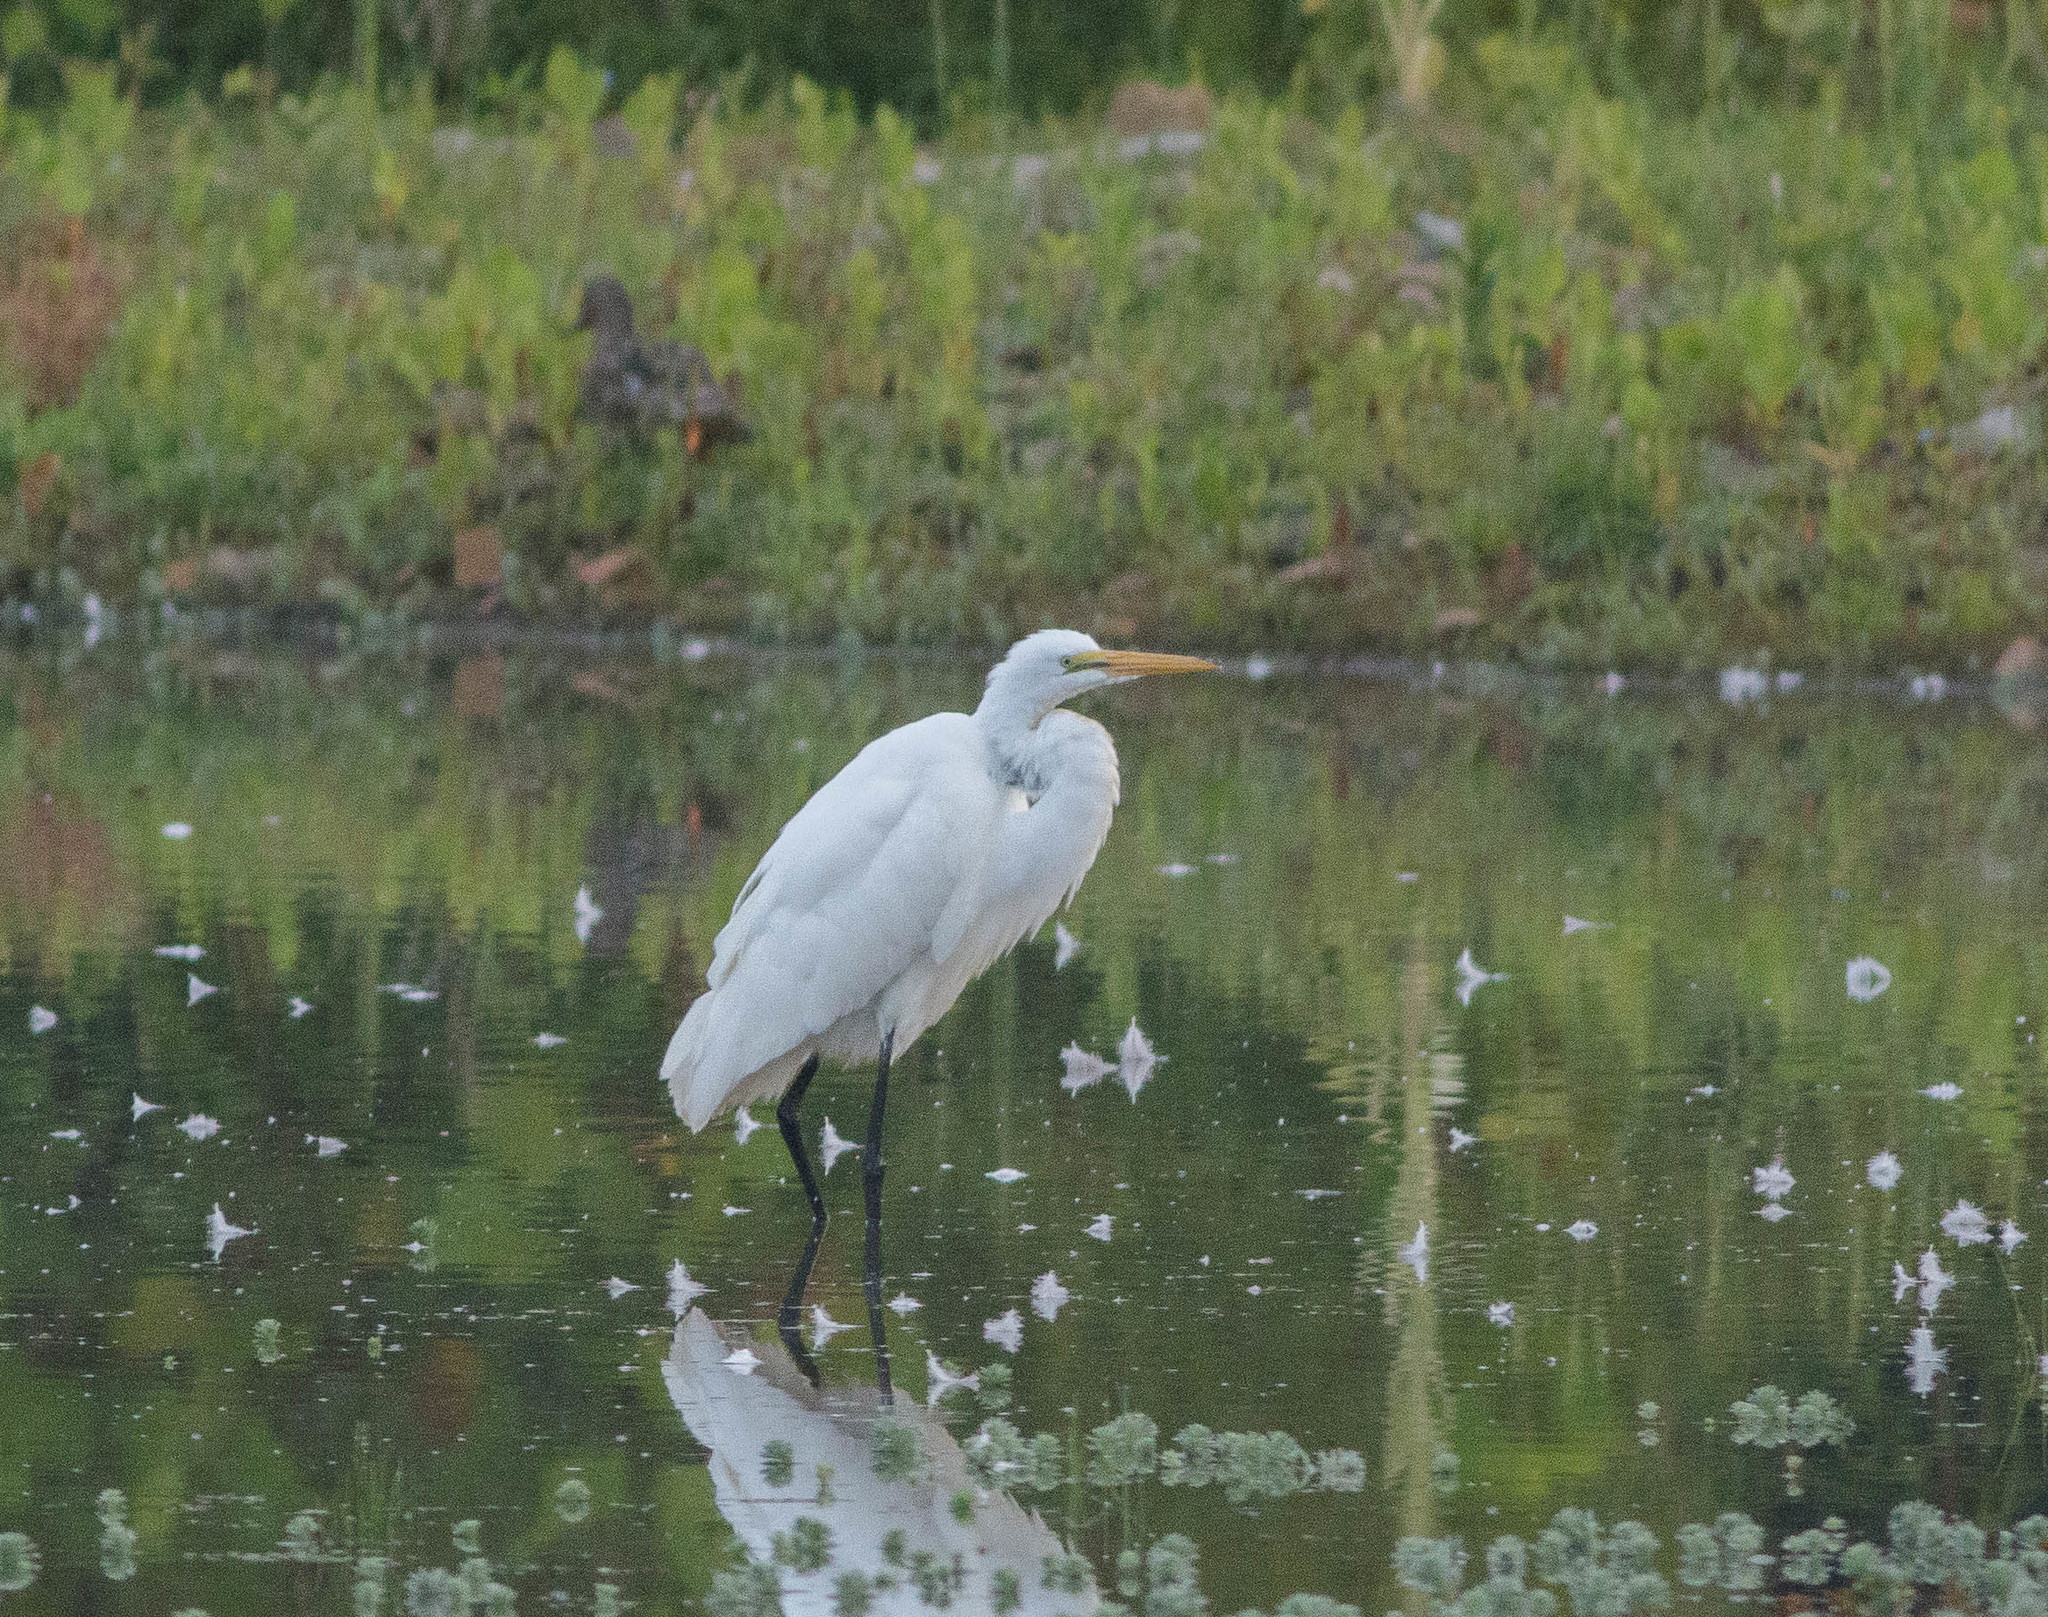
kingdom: Animalia
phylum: Chordata
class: Aves
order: Pelecaniformes
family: Ardeidae
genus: Ardea
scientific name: Ardea alba
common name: Great egret
